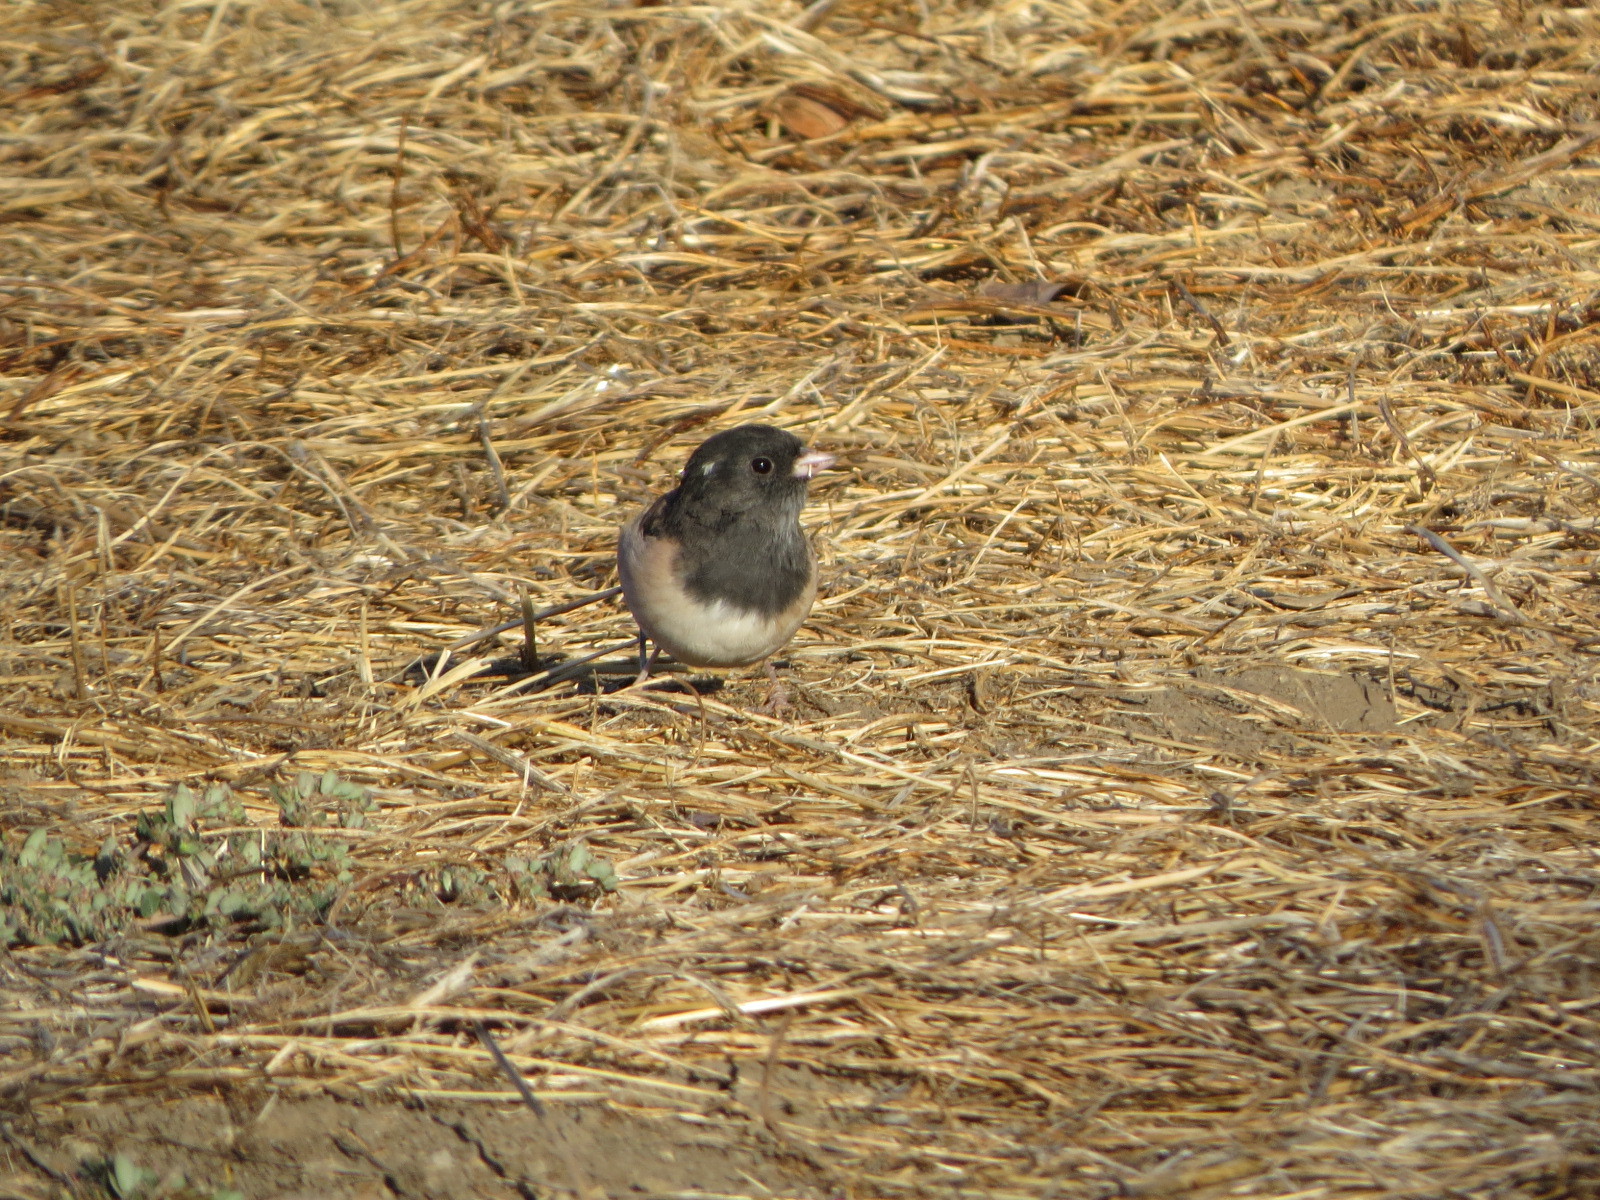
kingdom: Animalia
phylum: Chordata
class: Aves
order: Passeriformes
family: Passerellidae
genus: Junco
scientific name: Junco hyemalis
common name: Dark-eyed junco
